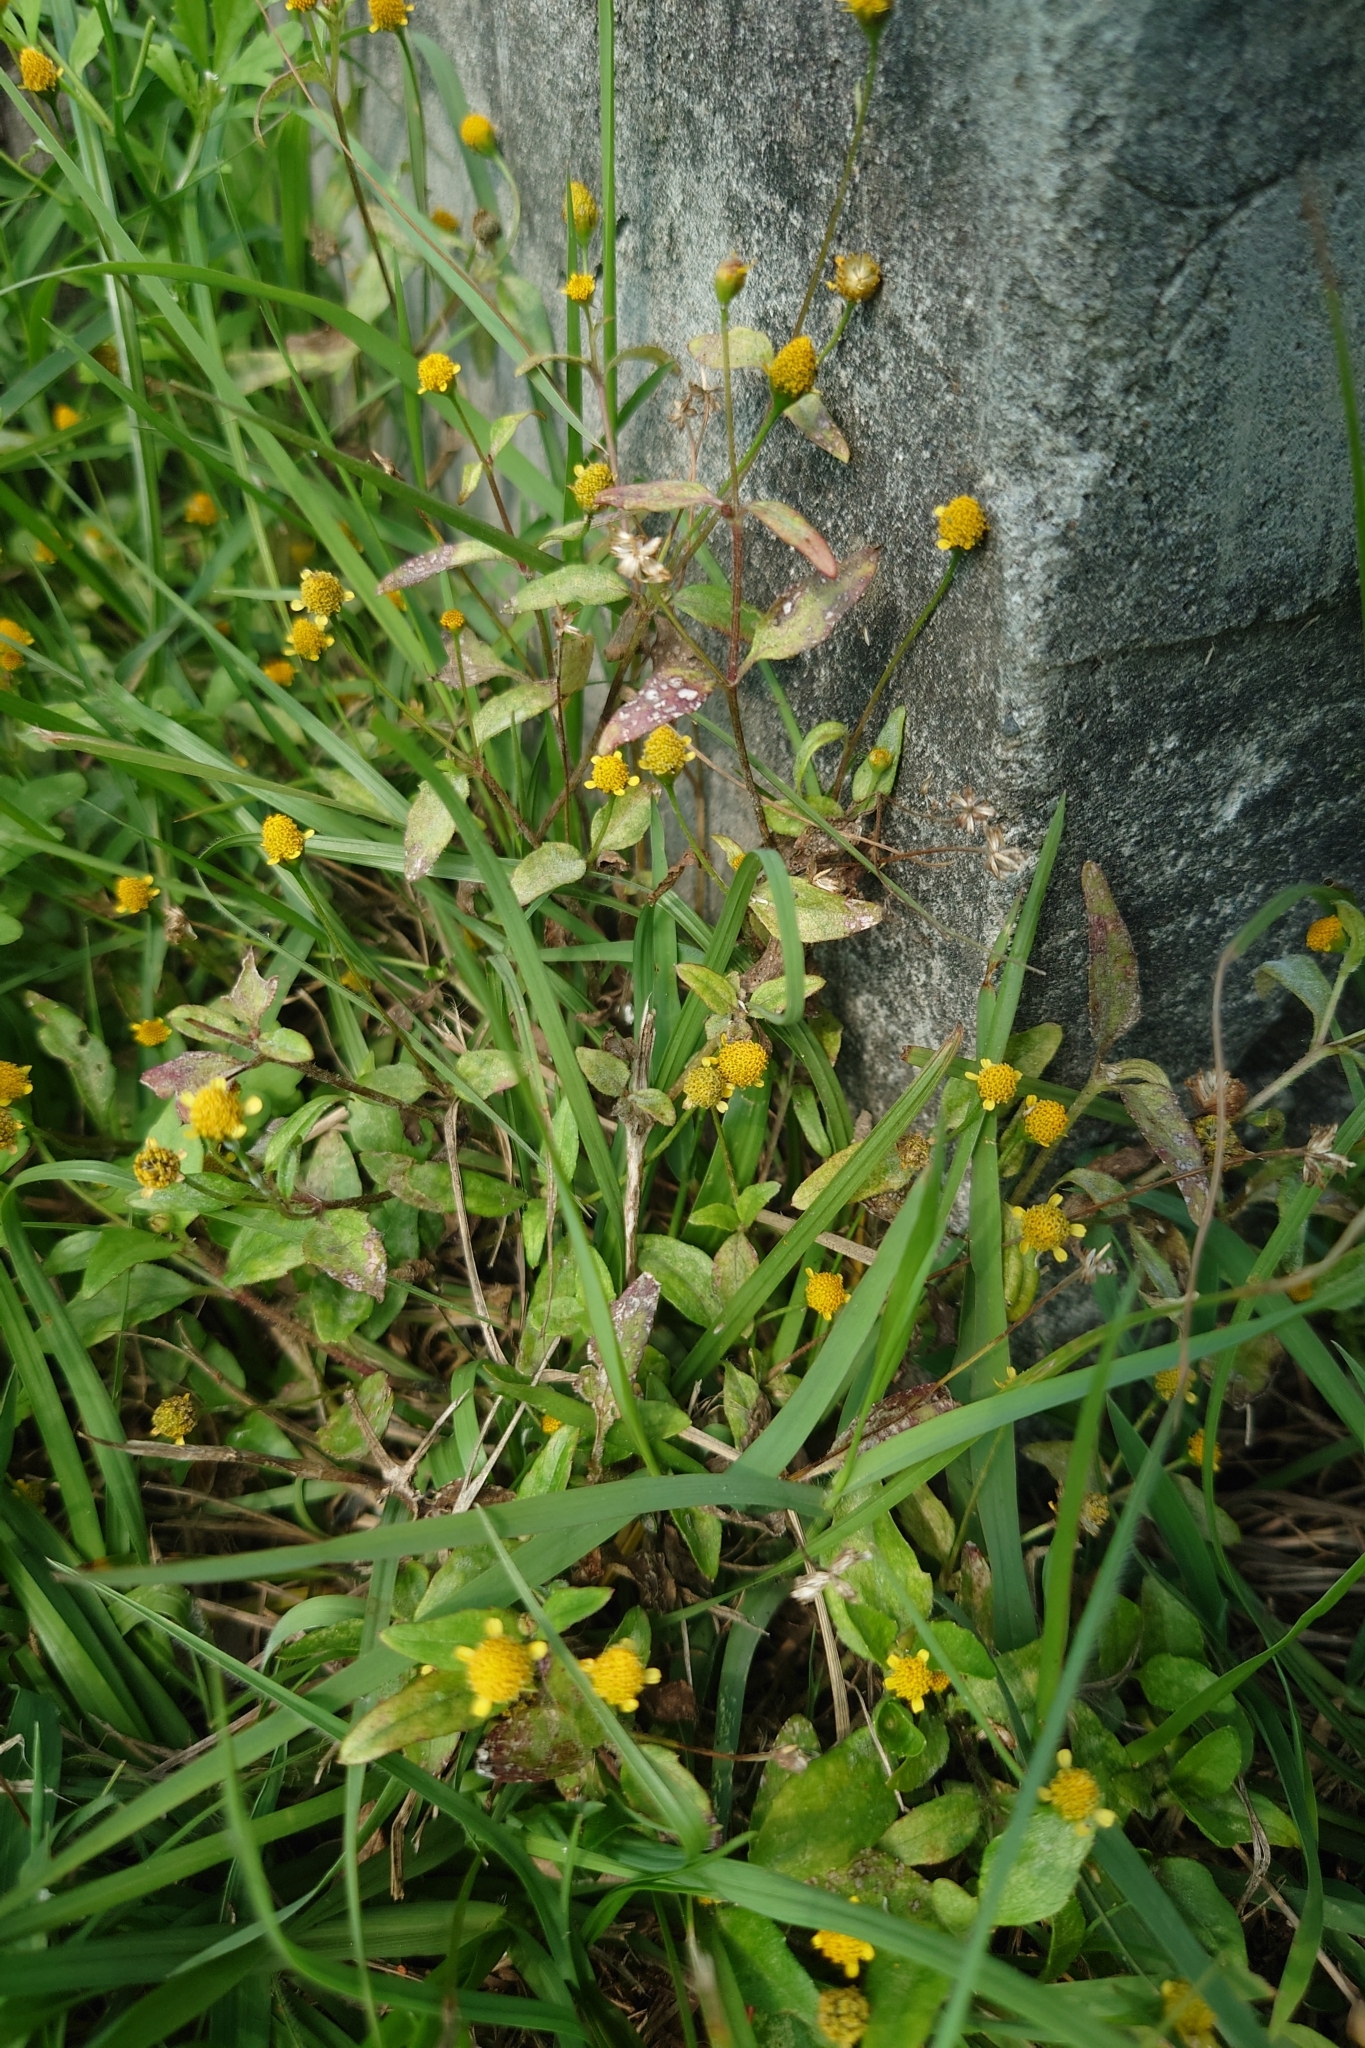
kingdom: Plantae
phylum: Tracheophyta
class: Magnoliopsida
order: Asterales
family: Asteraceae
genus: Acmella
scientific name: Acmella uliginosa
